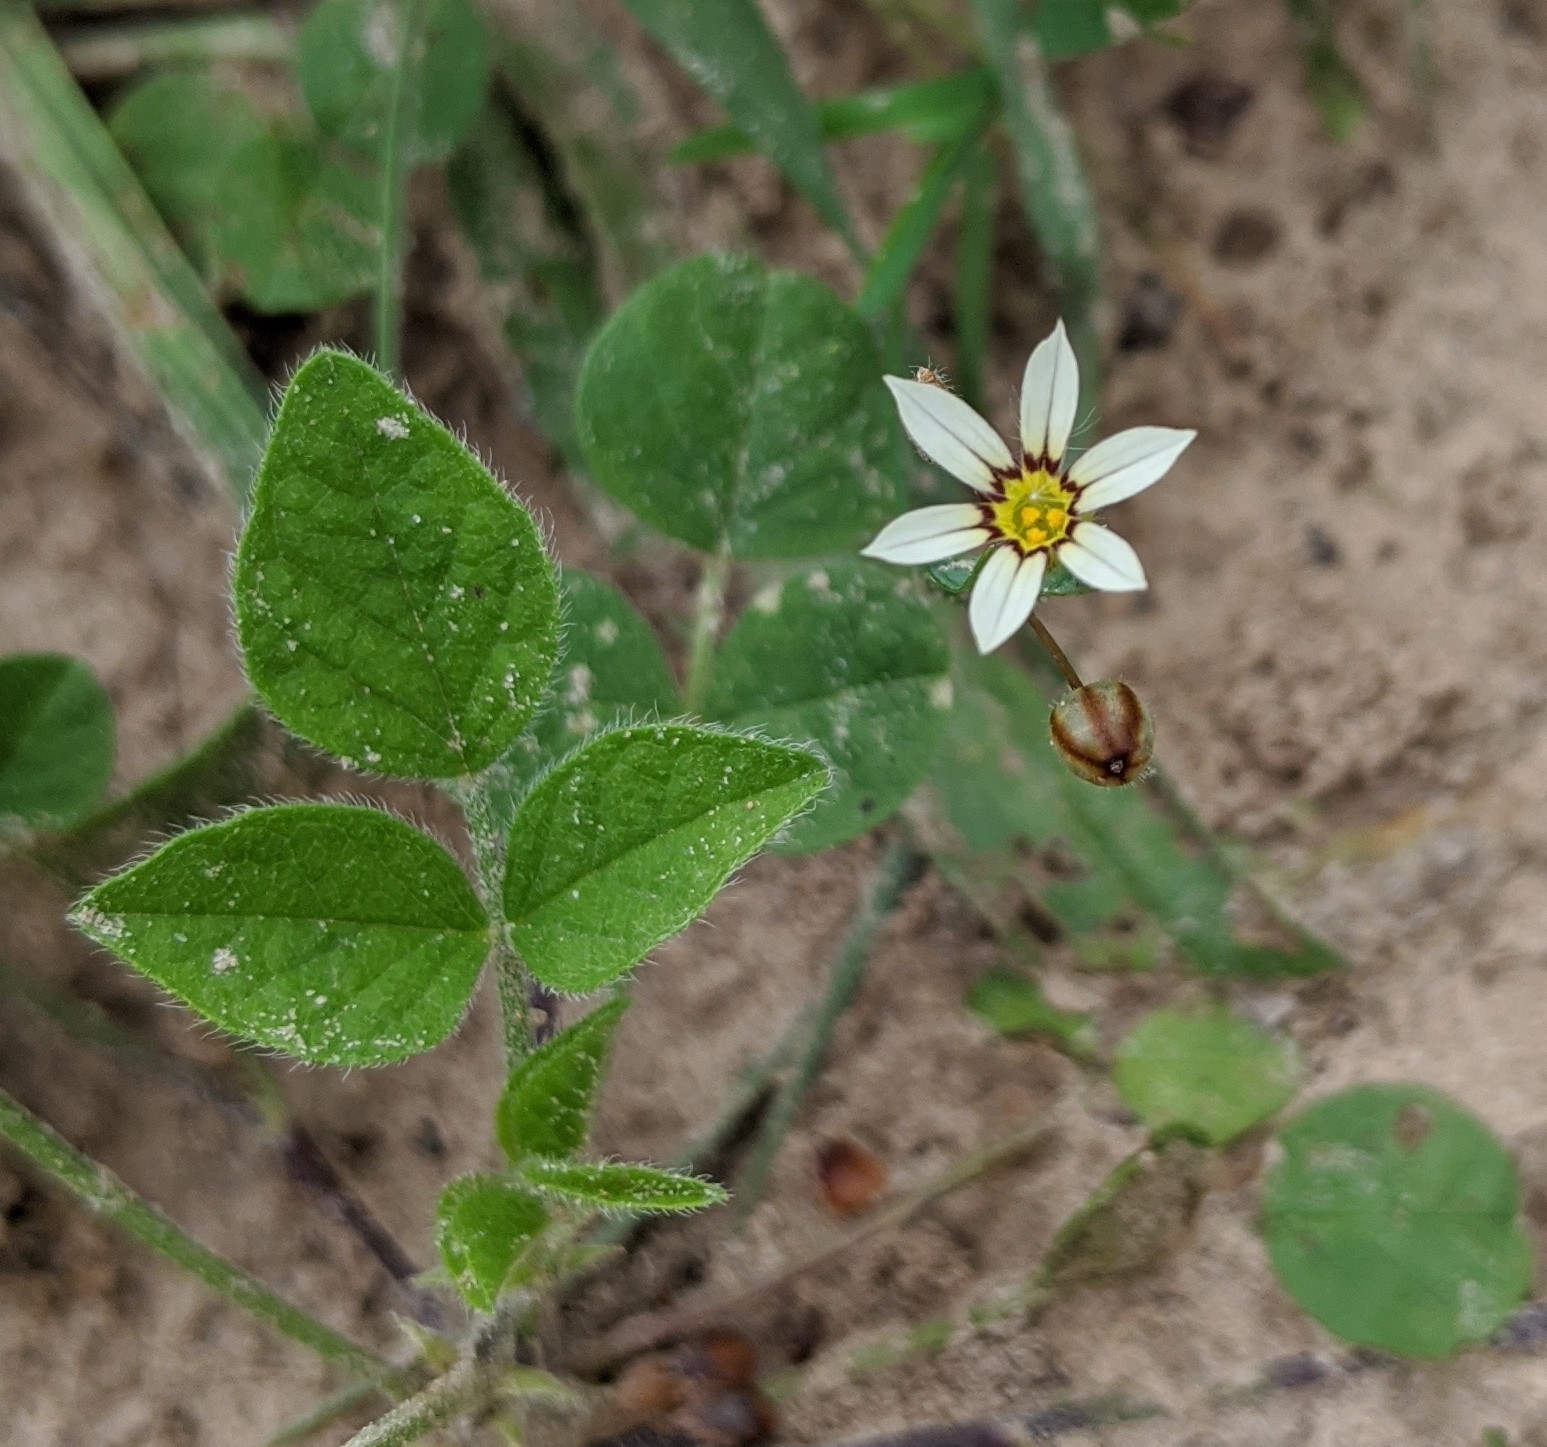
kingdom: Plantae
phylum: Tracheophyta
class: Liliopsida
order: Asparagales
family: Iridaceae
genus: Sisyrinchium
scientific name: Sisyrinchium micranthum
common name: Bermuda pigroot
